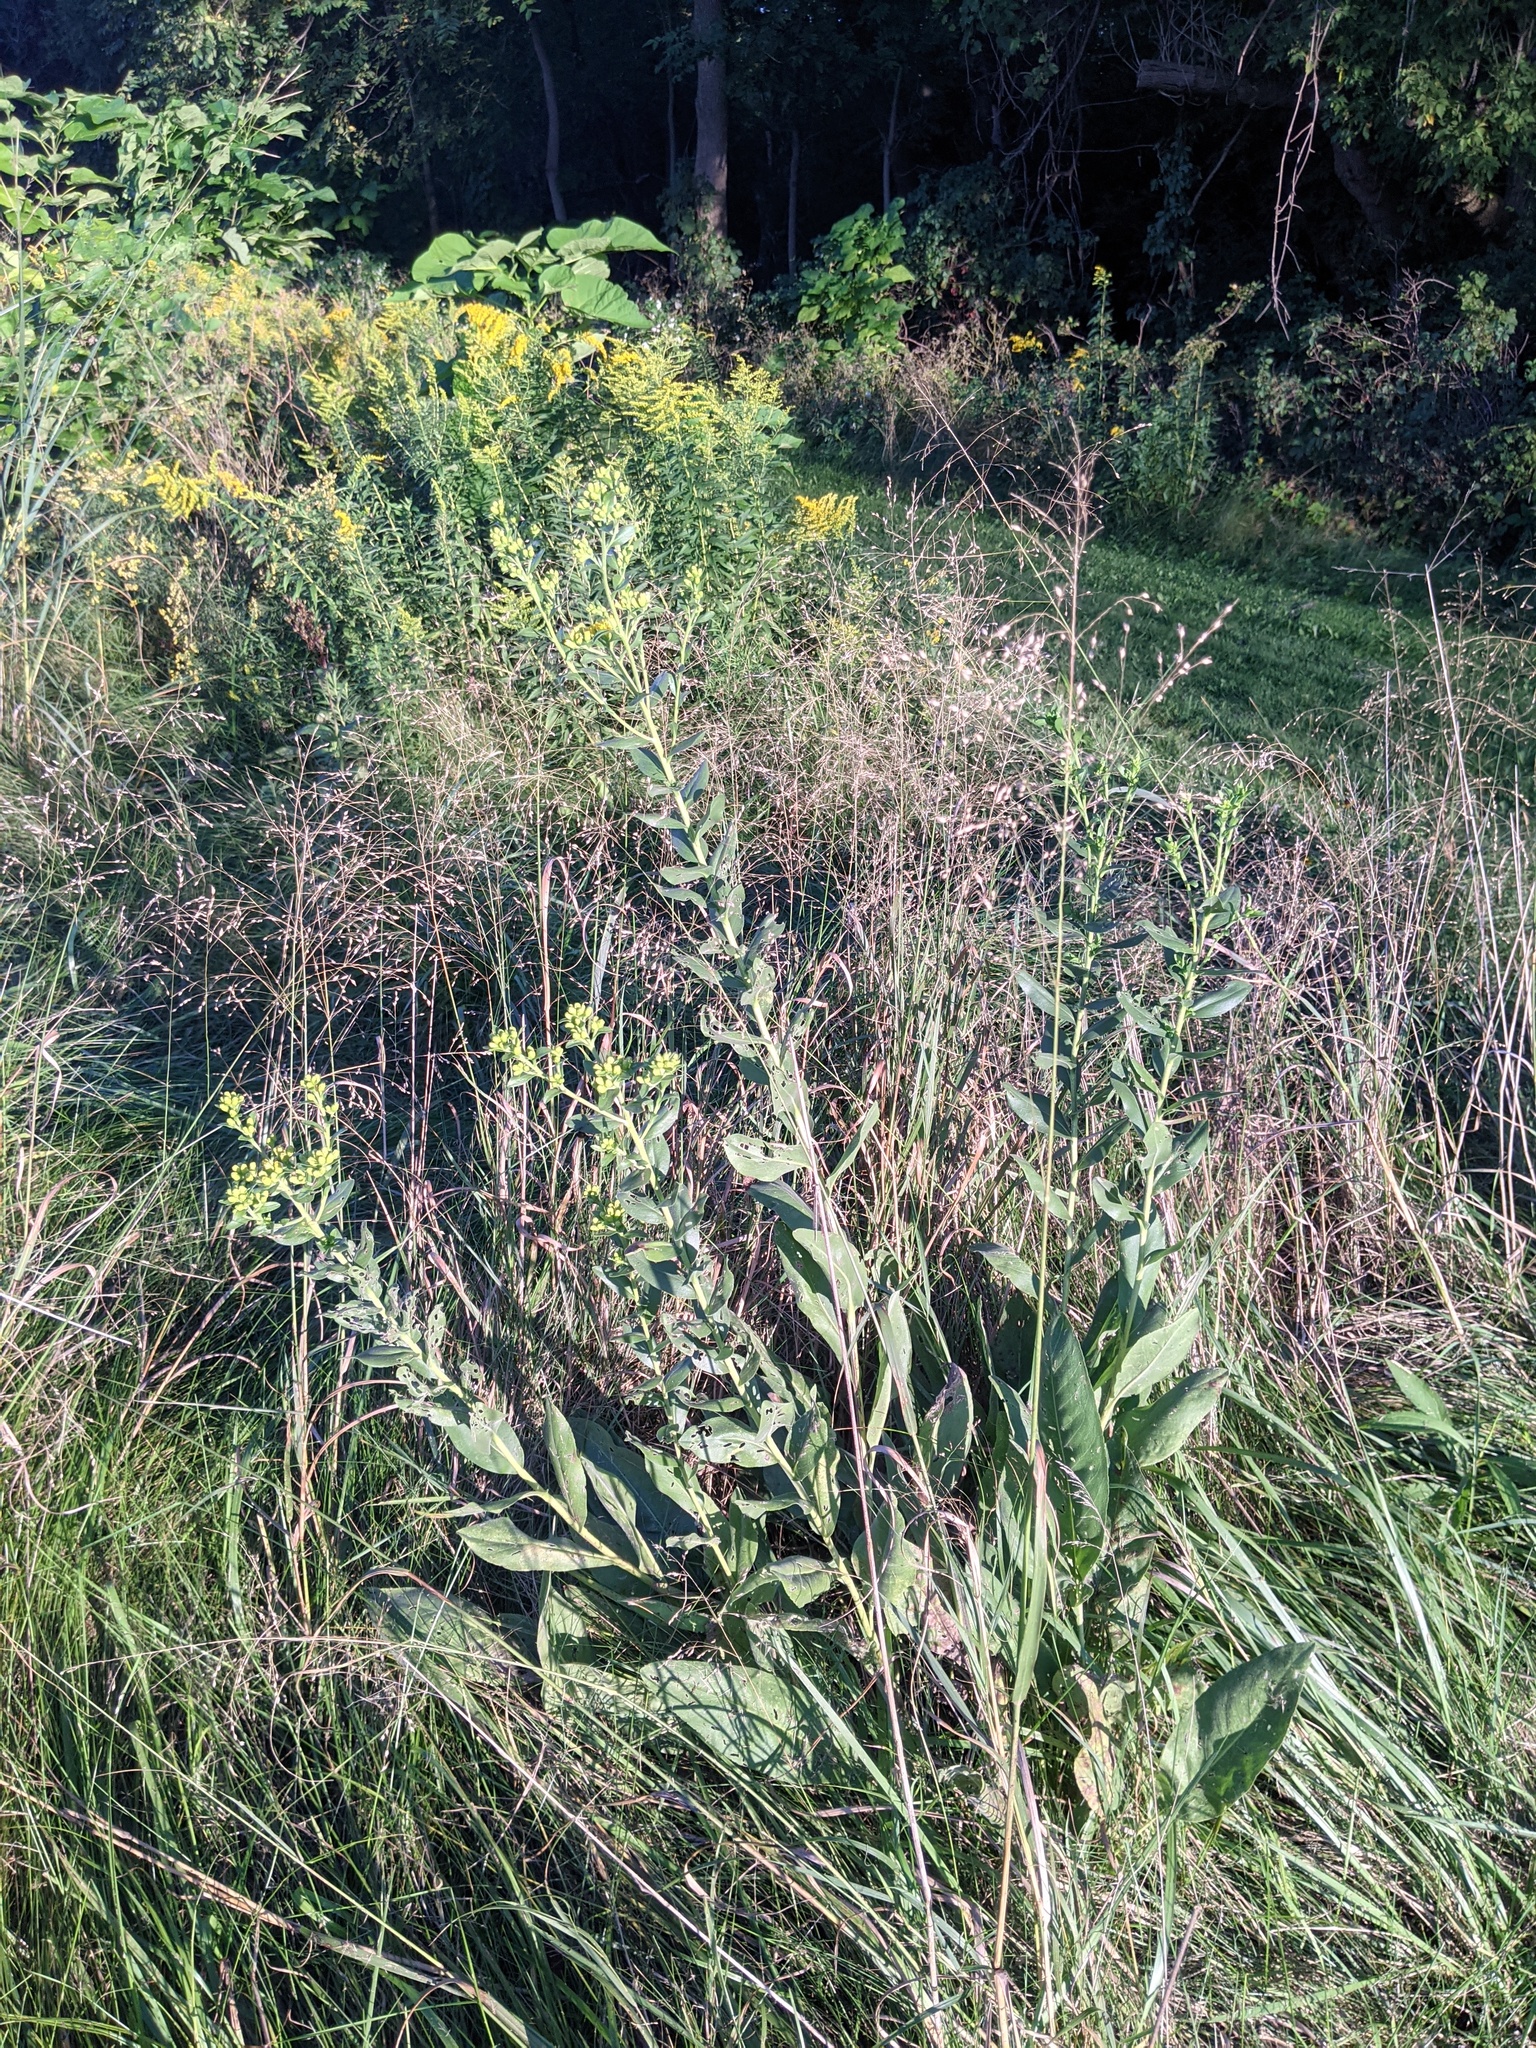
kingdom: Plantae
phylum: Tracheophyta
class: Magnoliopsida
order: Asterales
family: Asteraceae
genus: Solidago
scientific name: Solidago rigida
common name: Rigid goldenrod
